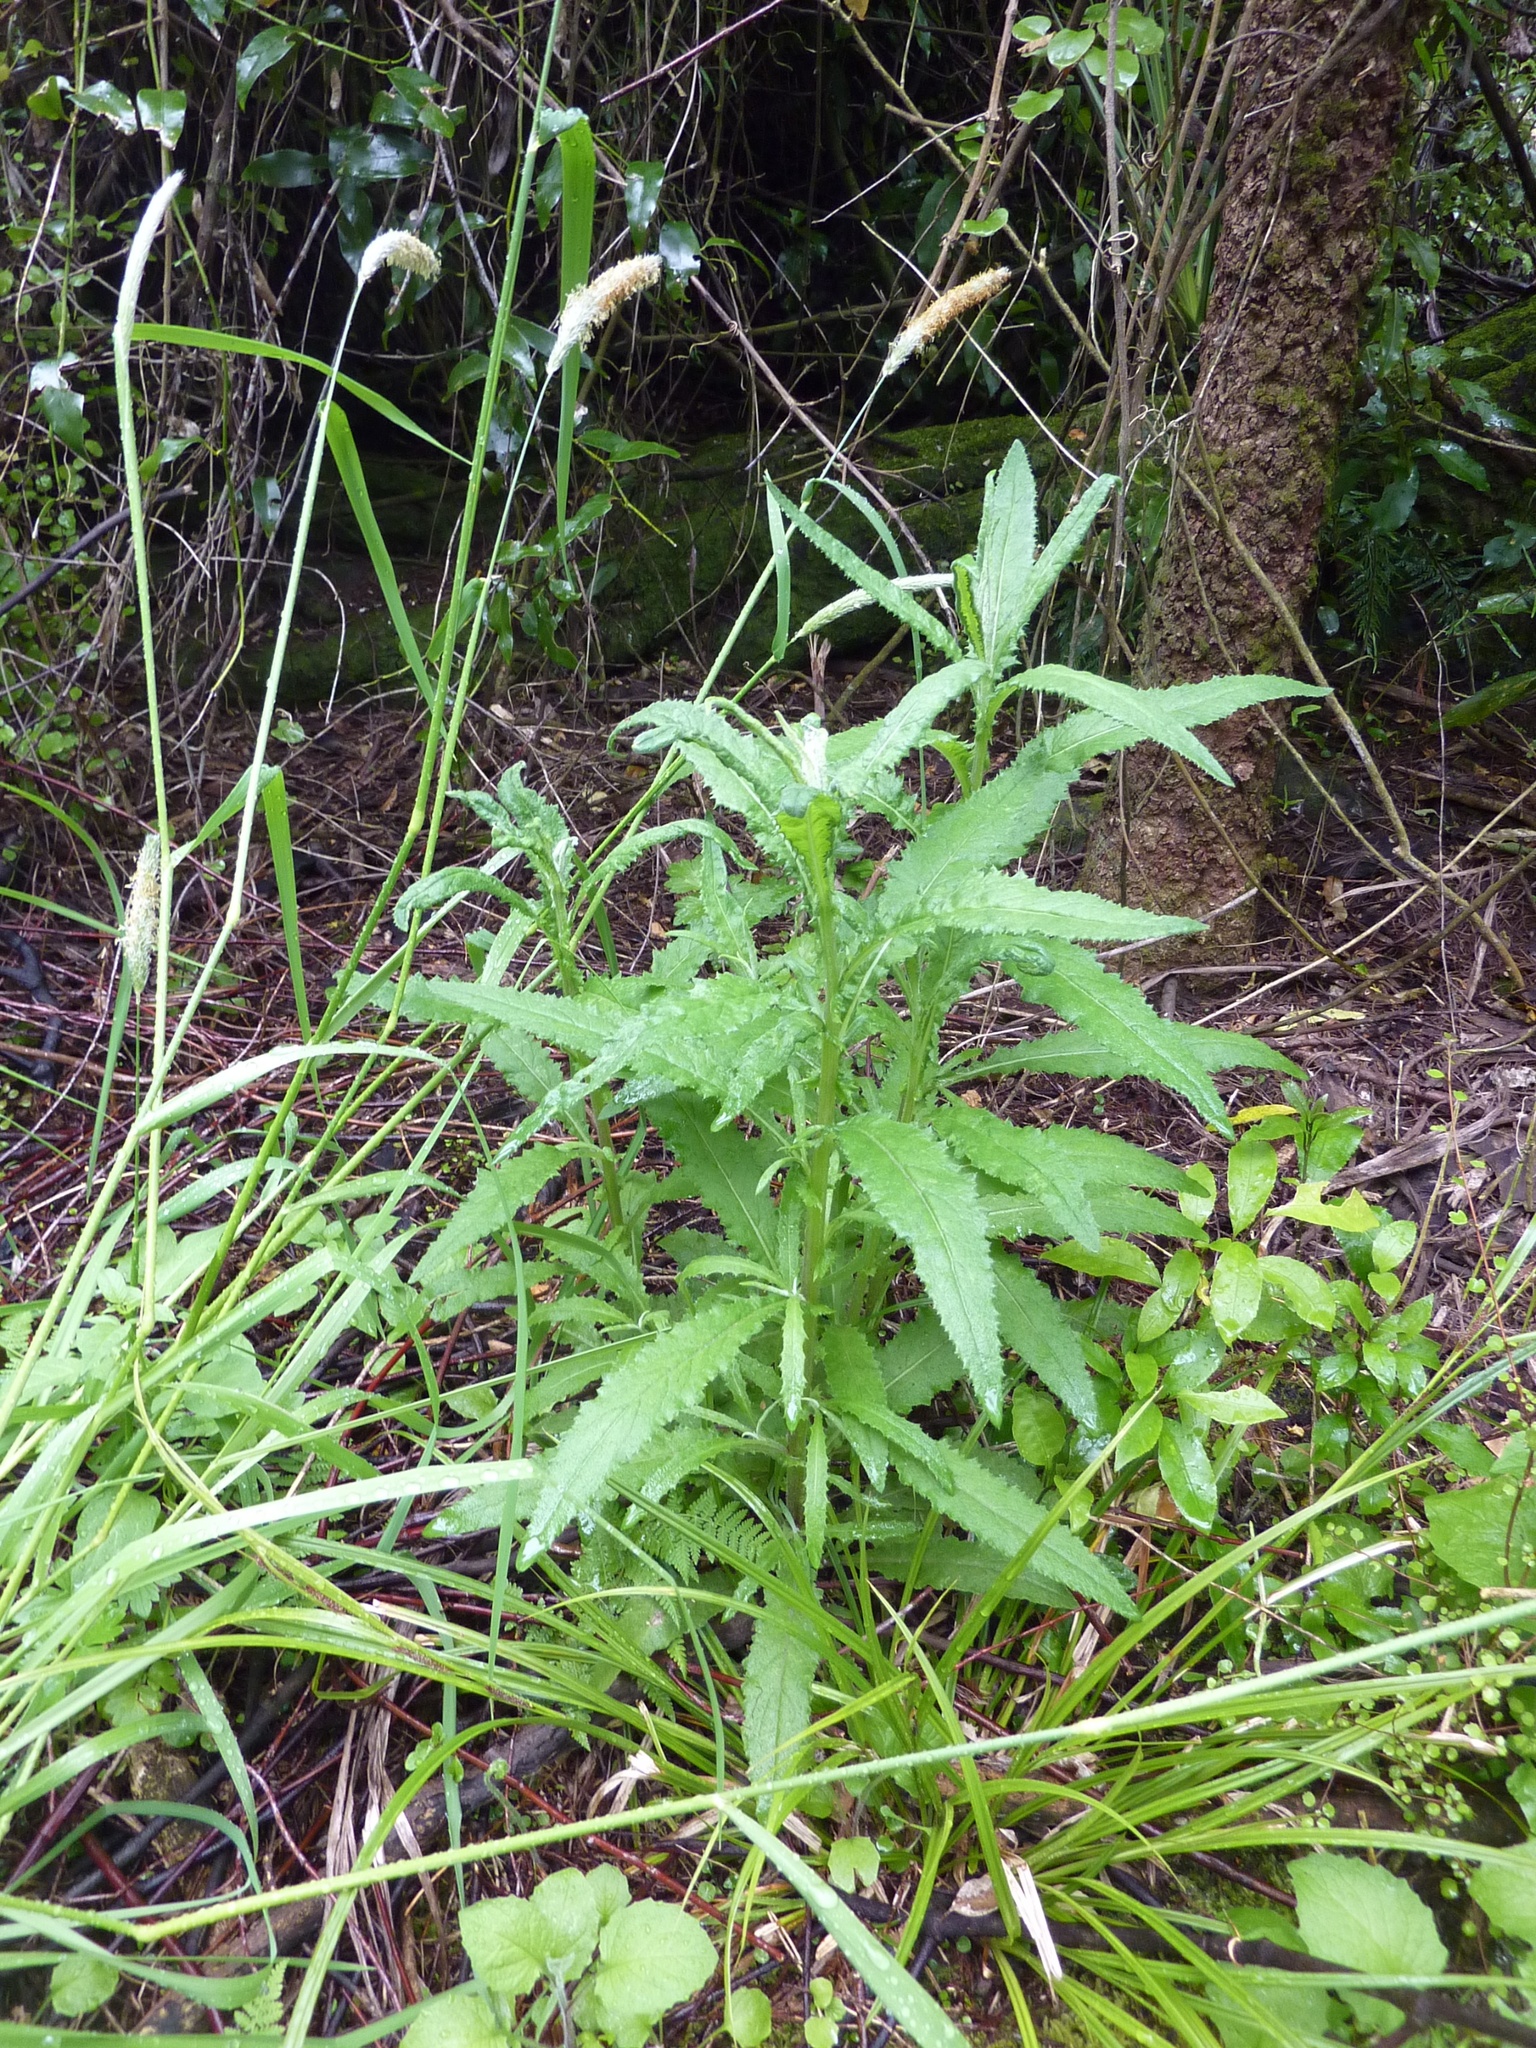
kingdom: Plantae
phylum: Tracheophyta
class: Magnoliopsida
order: Asterales
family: Asteraceae
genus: Senecio
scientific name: Senecio minimus
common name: Toothed fireweed
